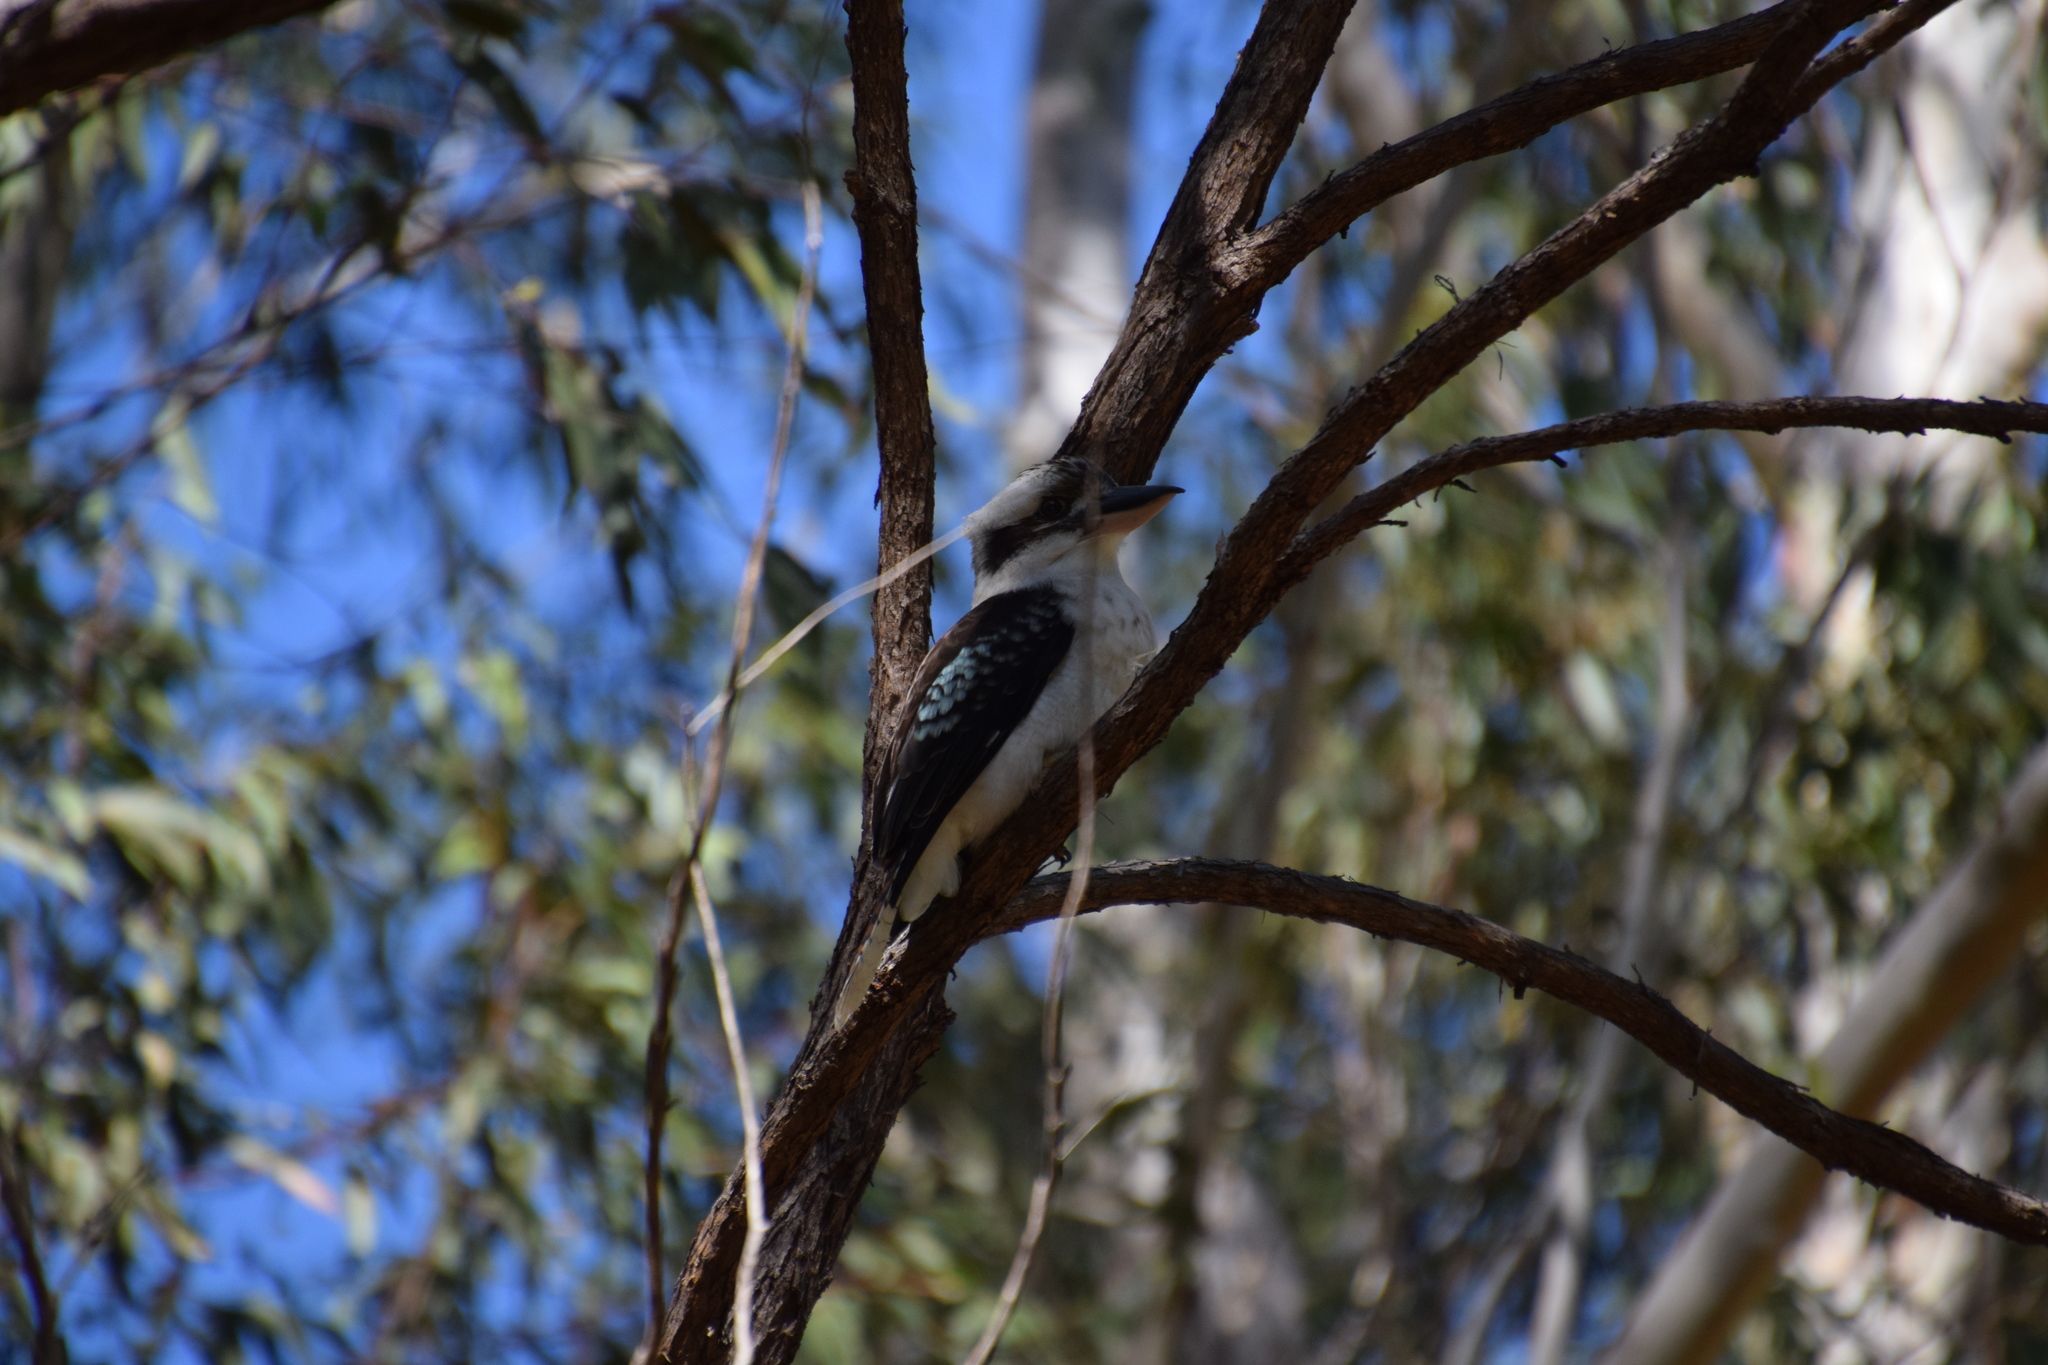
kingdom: Animalia
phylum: Chordata
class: Aves
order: Coraciiformes
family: Alcedinidae
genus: Dacelo
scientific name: Dacelo novaeguineae
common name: Laughing kookaburra
